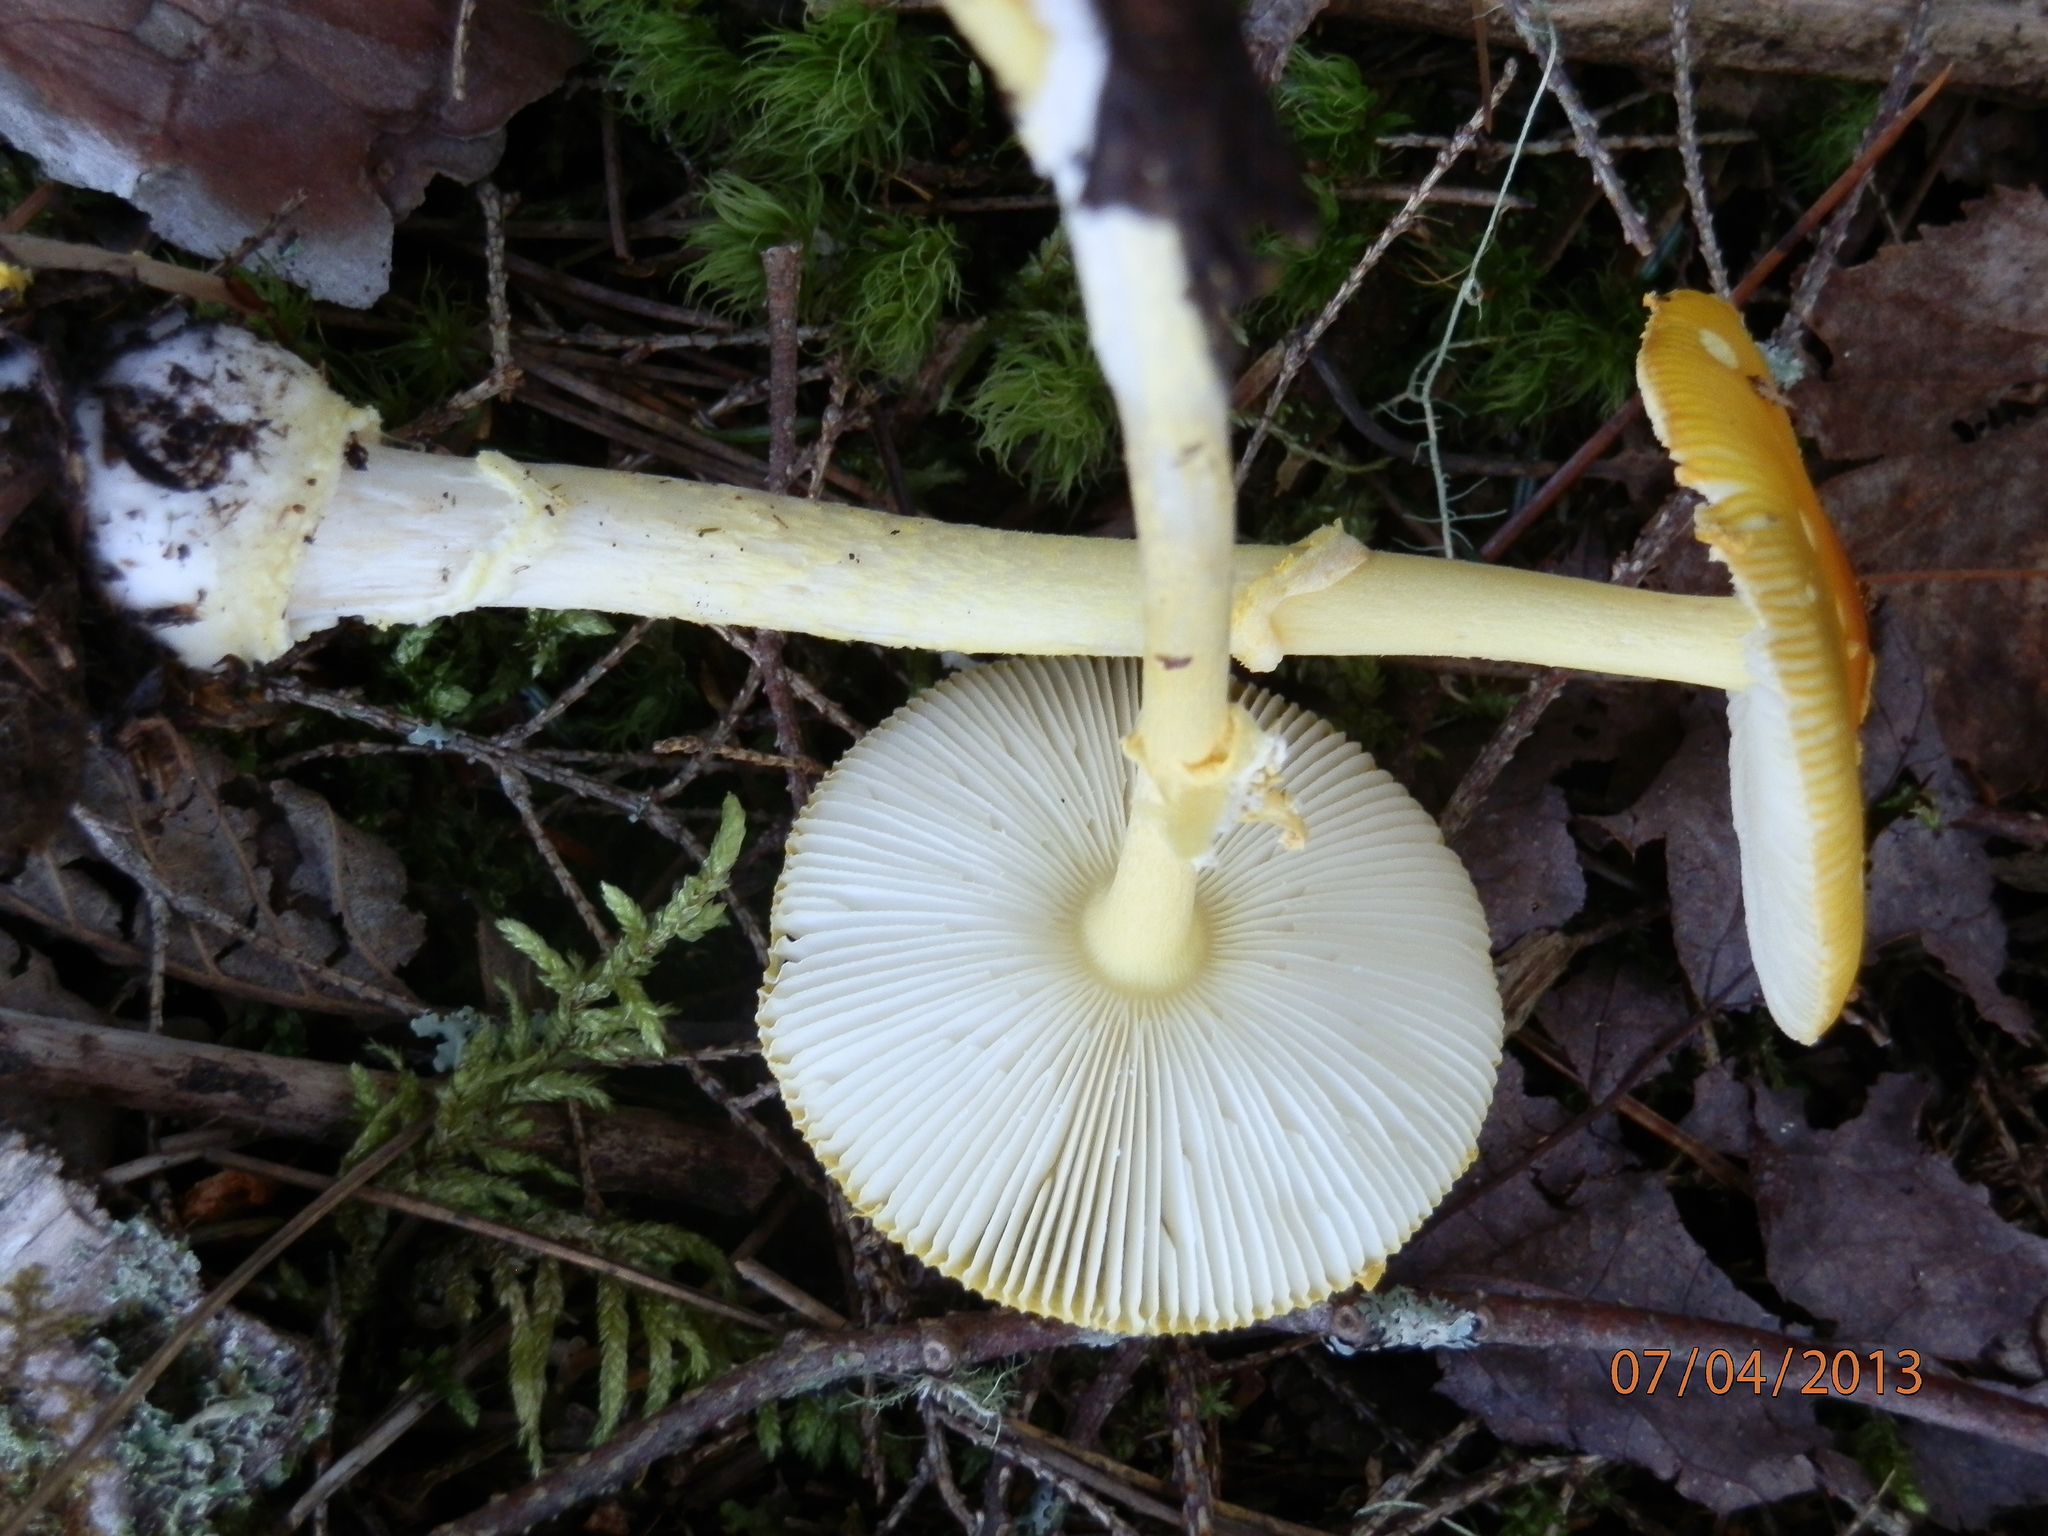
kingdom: Fungi
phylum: Basidiomycota
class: Agaricomycetes
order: Agaricales
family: Amanitaceae
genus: Amanita
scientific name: Amanita frostiana
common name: Frost's amanita
